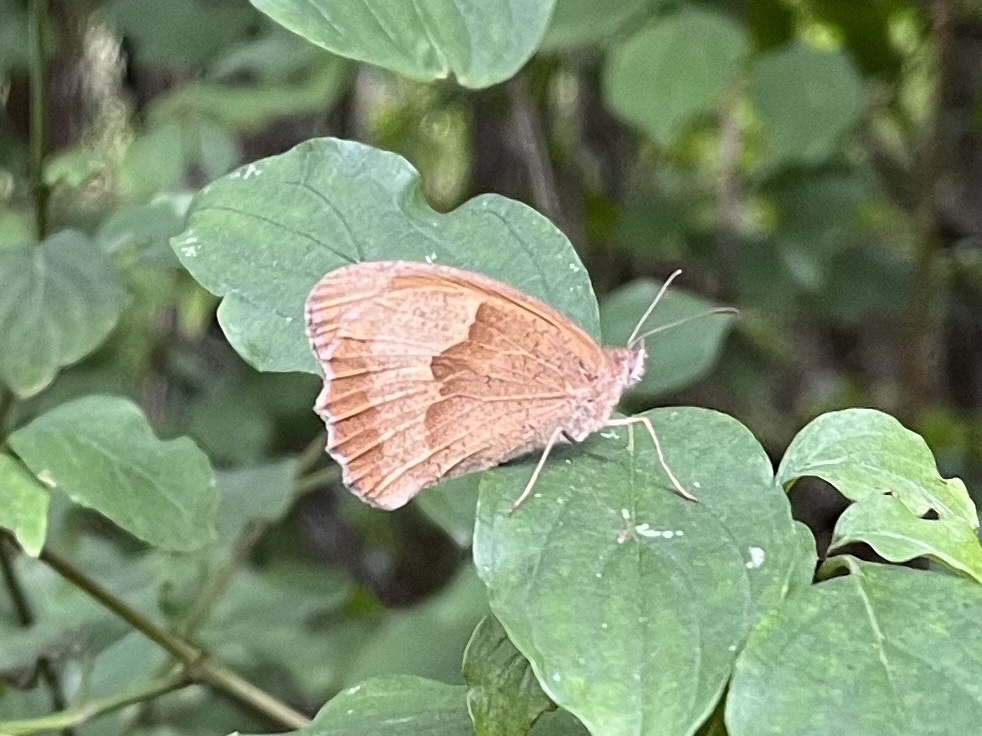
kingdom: Animalia
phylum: Arthropoda
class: Insecta
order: Lepidoptera
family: Nymphalidae
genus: Maniola
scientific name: Maniola jurtina
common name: Meadow brown
